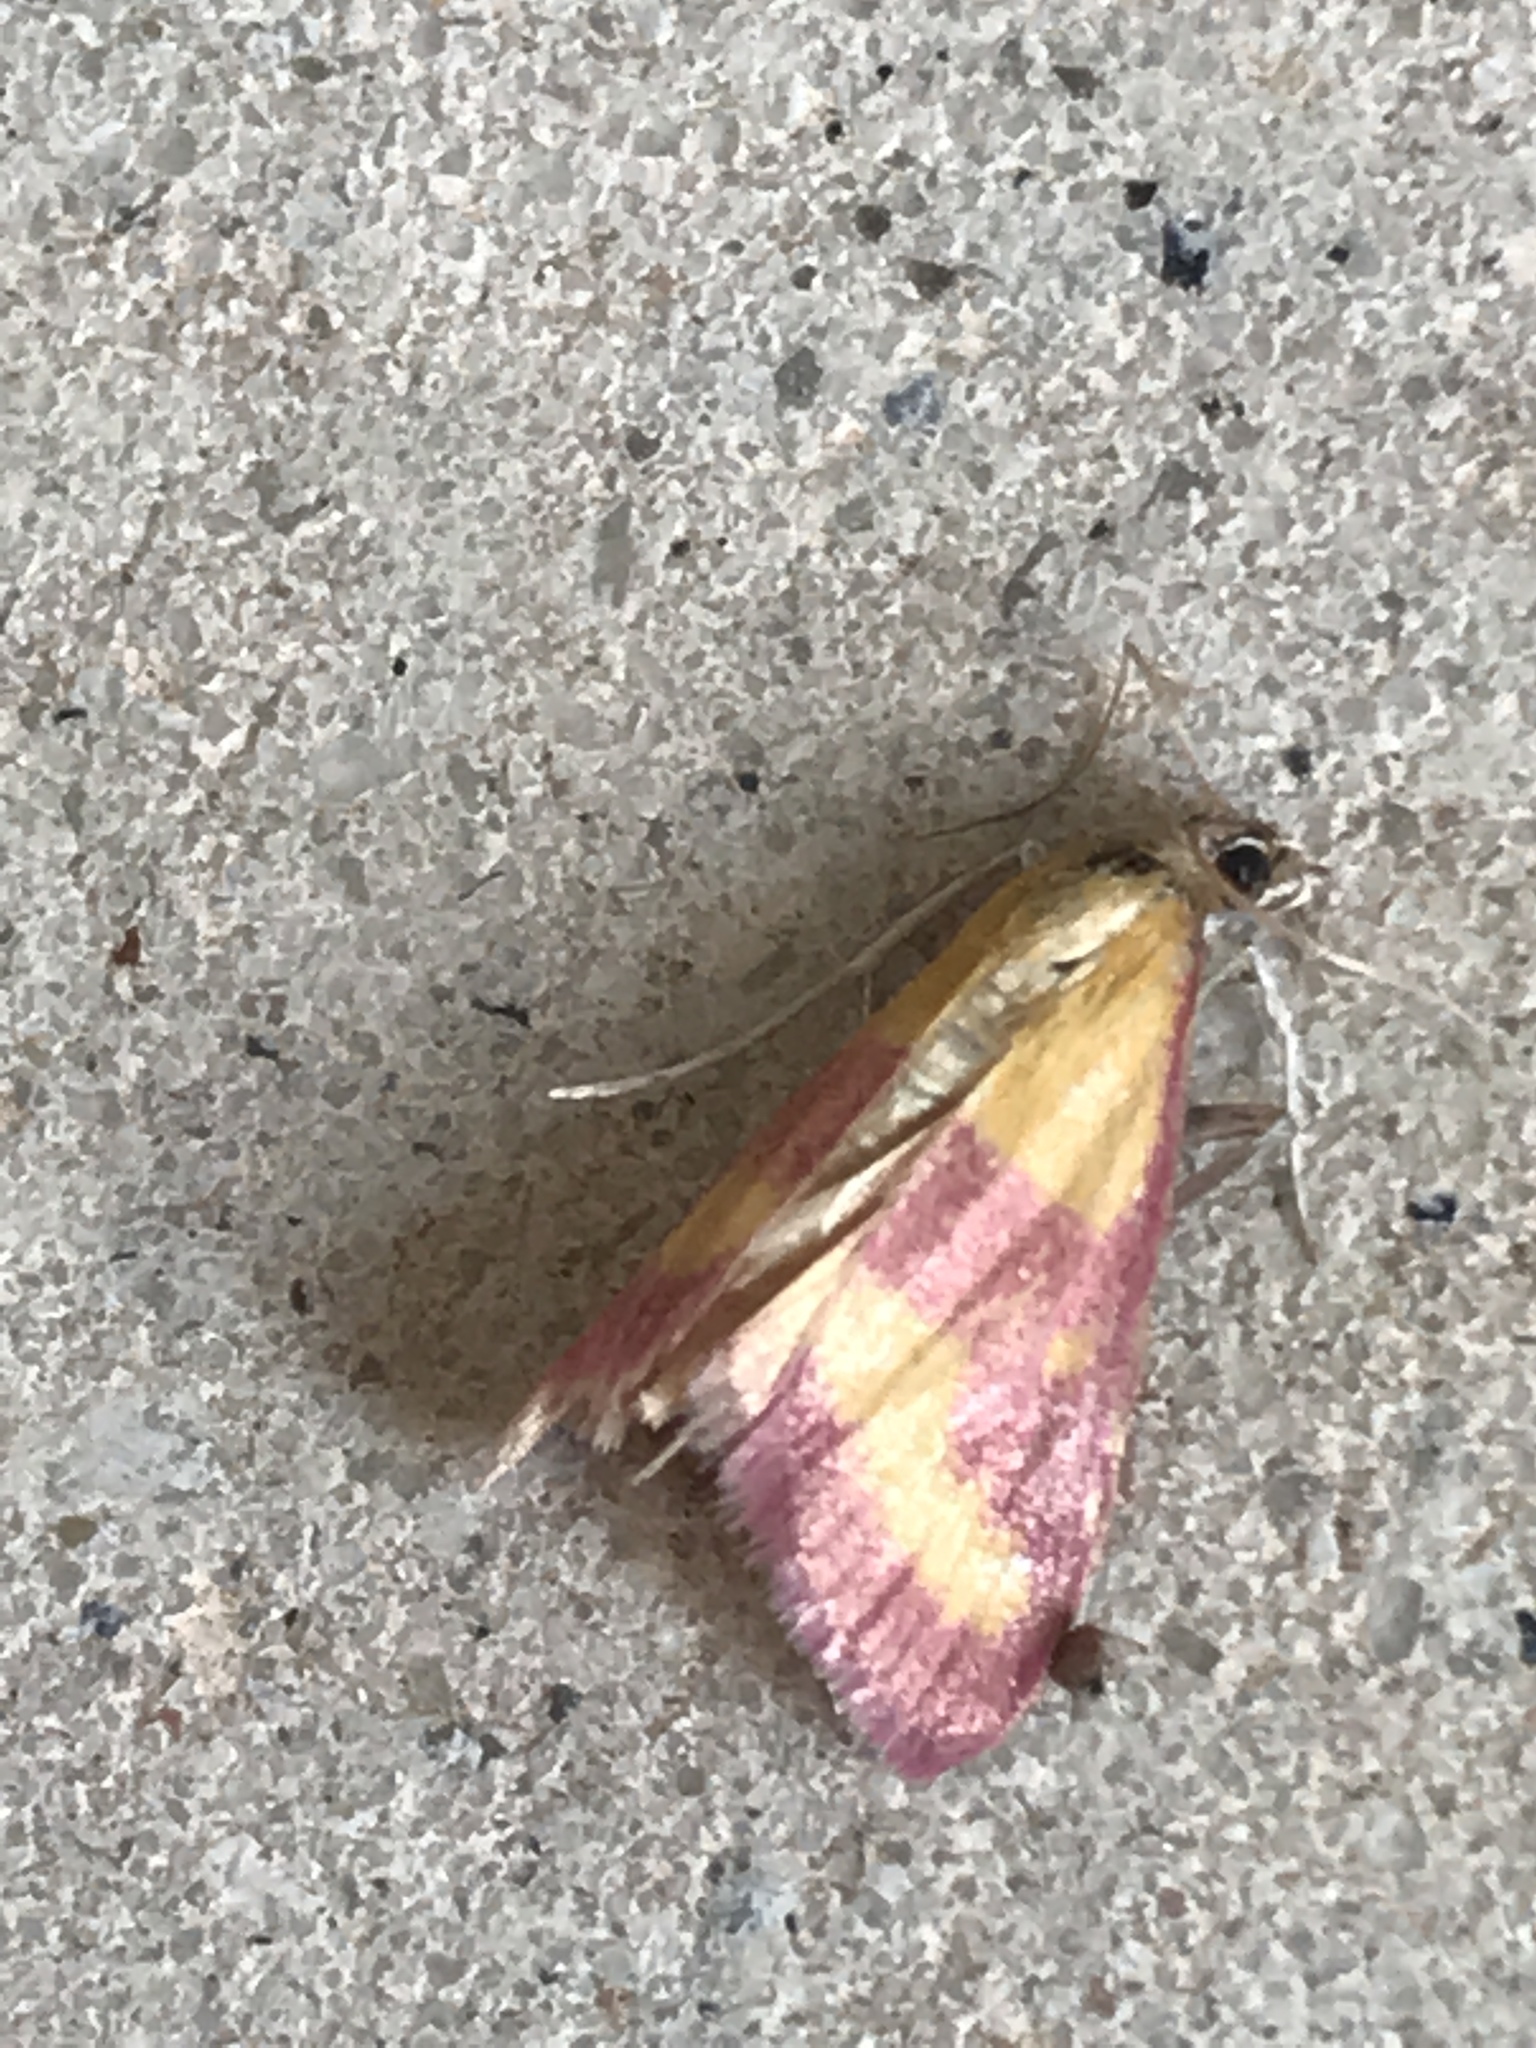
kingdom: Animalia
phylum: Arthropoda
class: Insecta
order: Lepidoptera
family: Crambidae
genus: Pyrausta
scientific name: Pyrausta laticlavia
